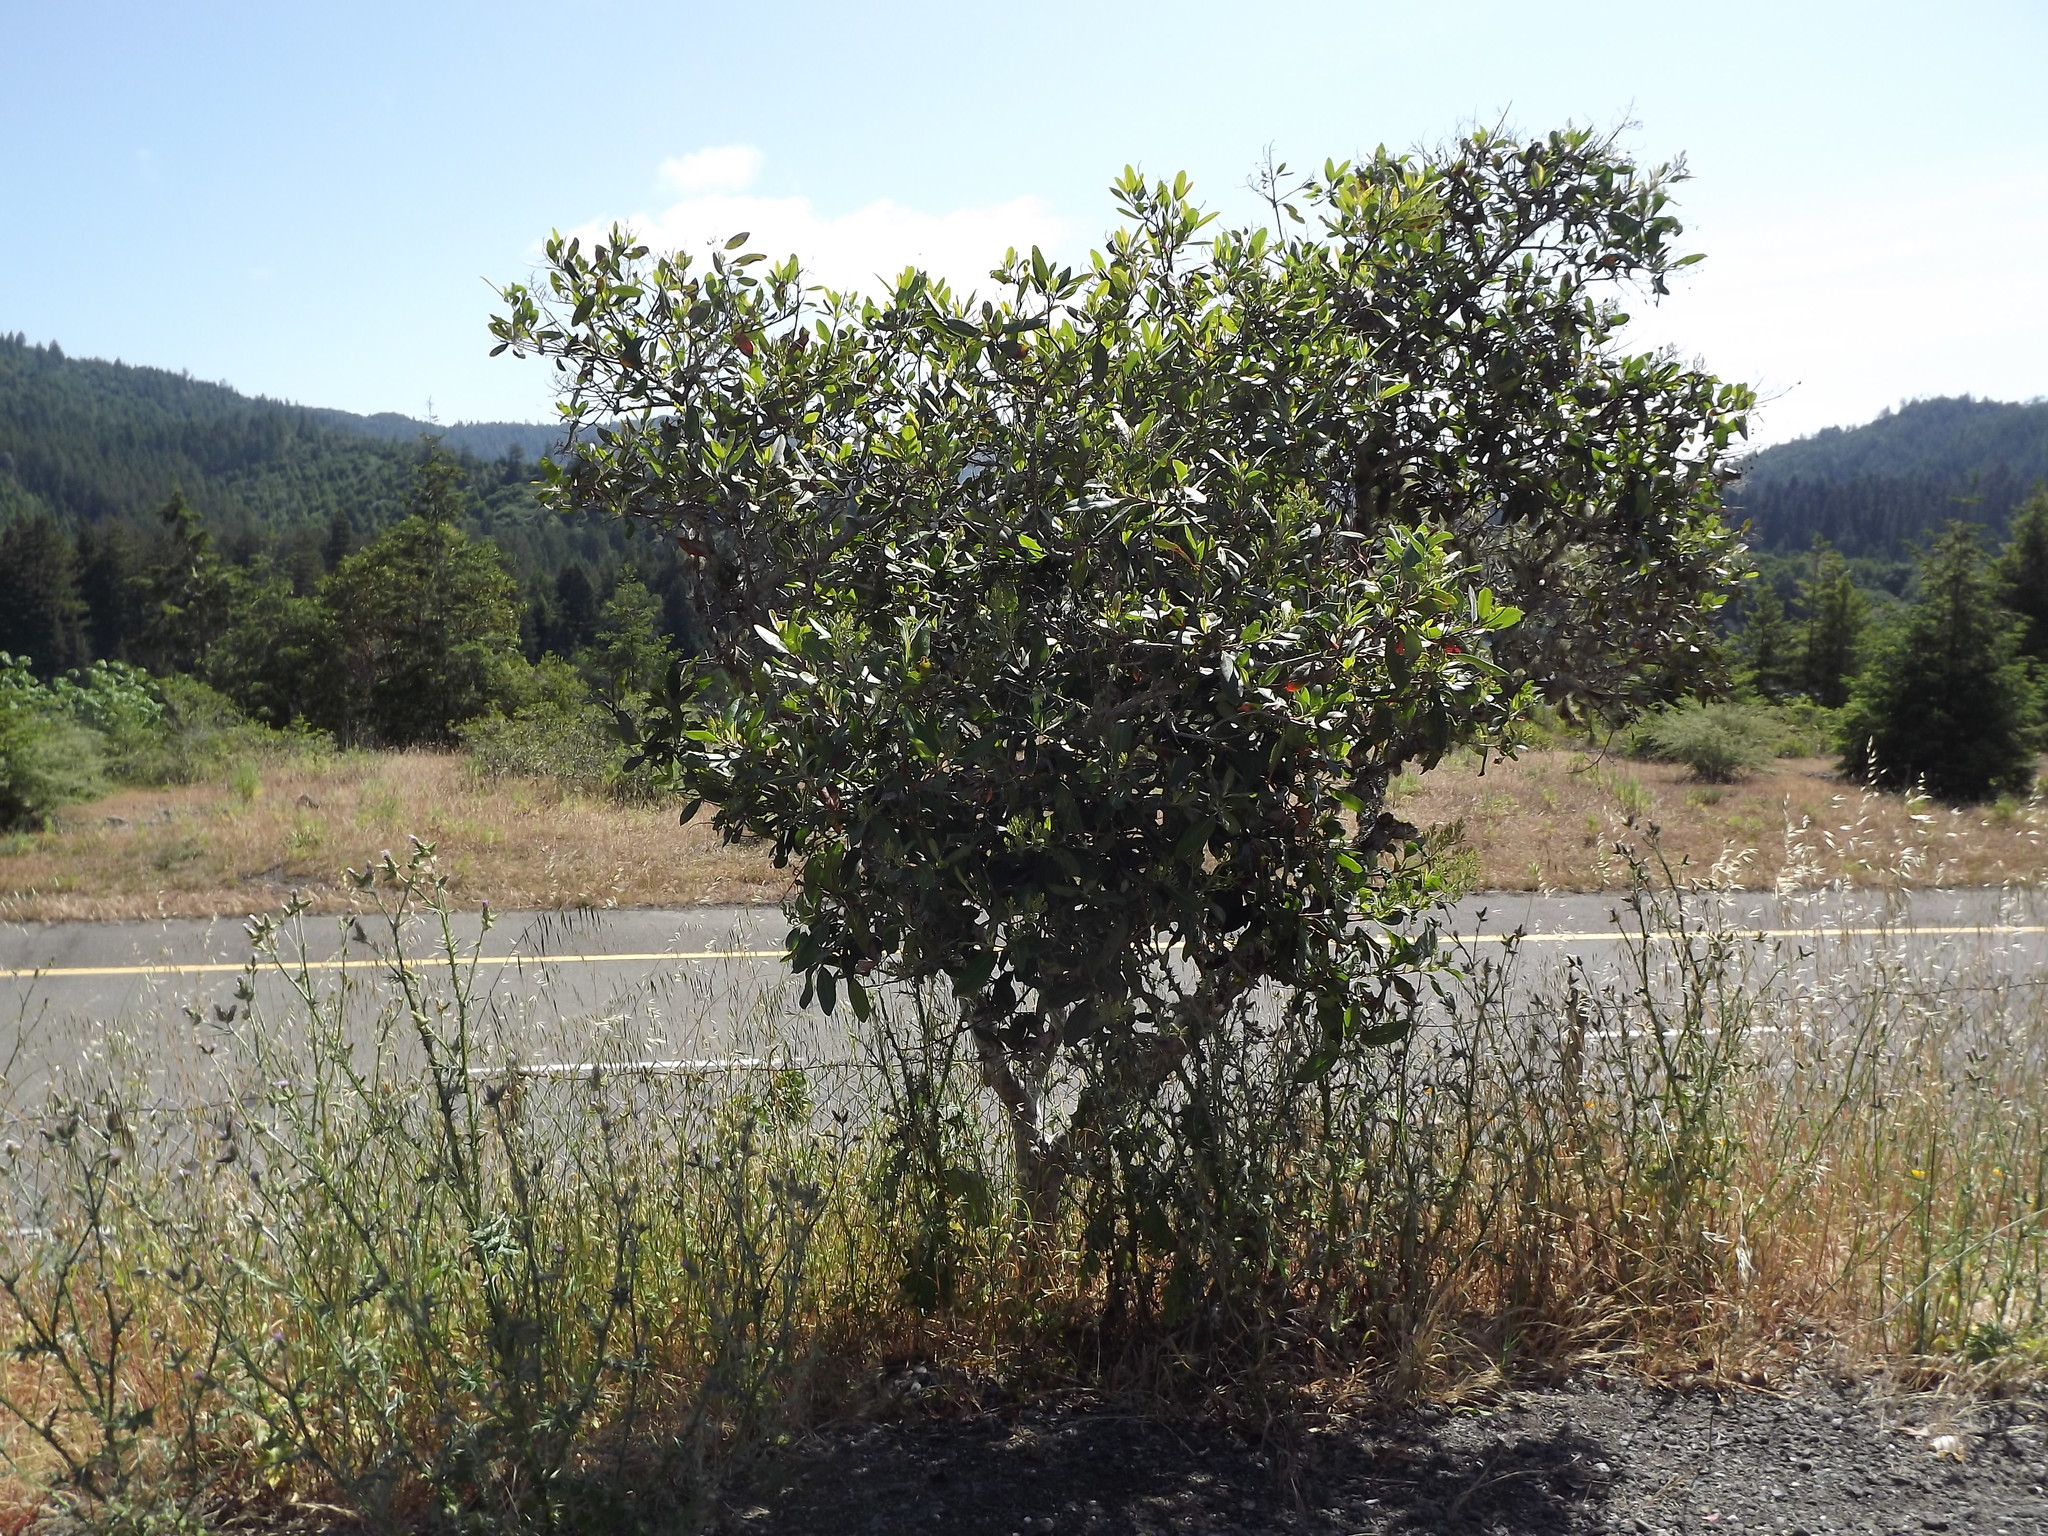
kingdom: Plantae
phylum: Tracheophyta
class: Magnoliopsida
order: Rosales
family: Rosaceae
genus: Heteromeles
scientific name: Heteromeles arbutifolia
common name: California-holly
